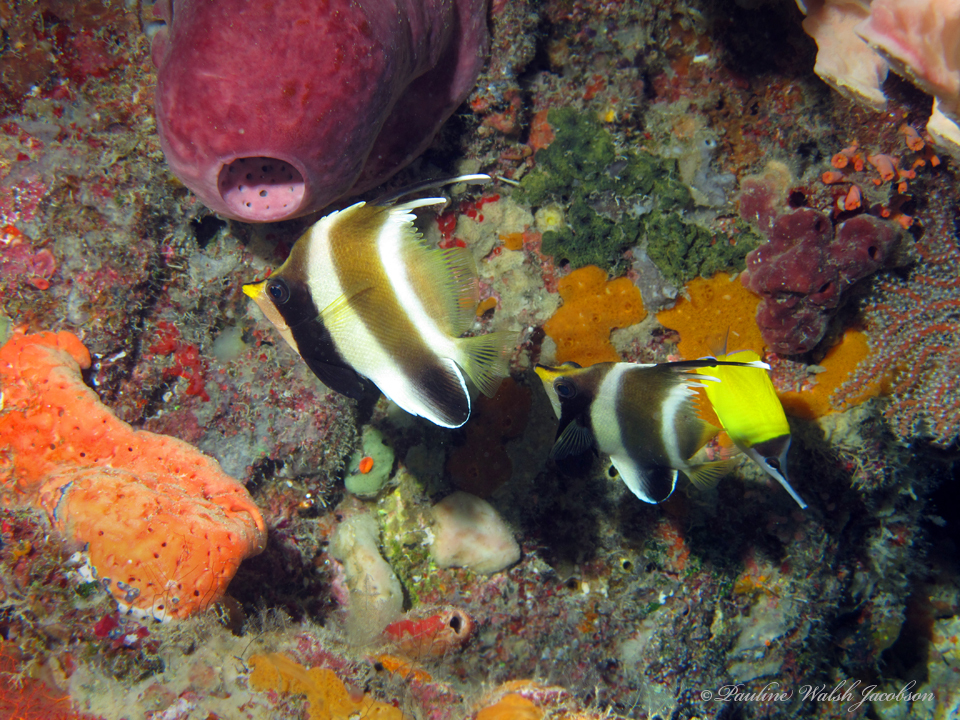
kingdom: Animalia
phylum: Chordata
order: Perciformes
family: Chaetodontidae
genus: Heniochus
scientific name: Heniochus chrysostomus
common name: Horned bannerfish
